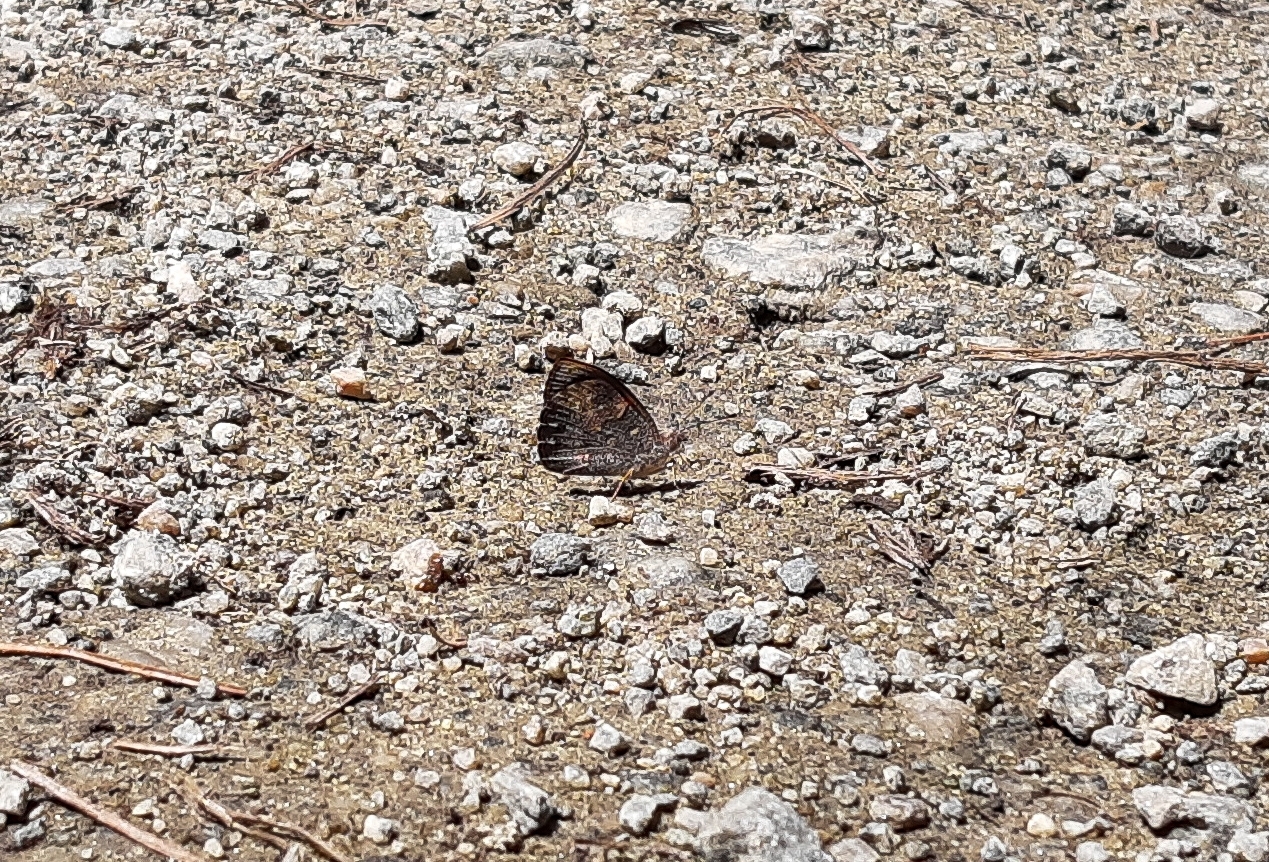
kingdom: Animalia
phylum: Arthropoda
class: Insecta
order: Lepidoptera
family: Nymphalidae
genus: Haematera
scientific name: Haematera pyrame
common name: Blind eighty-eight
